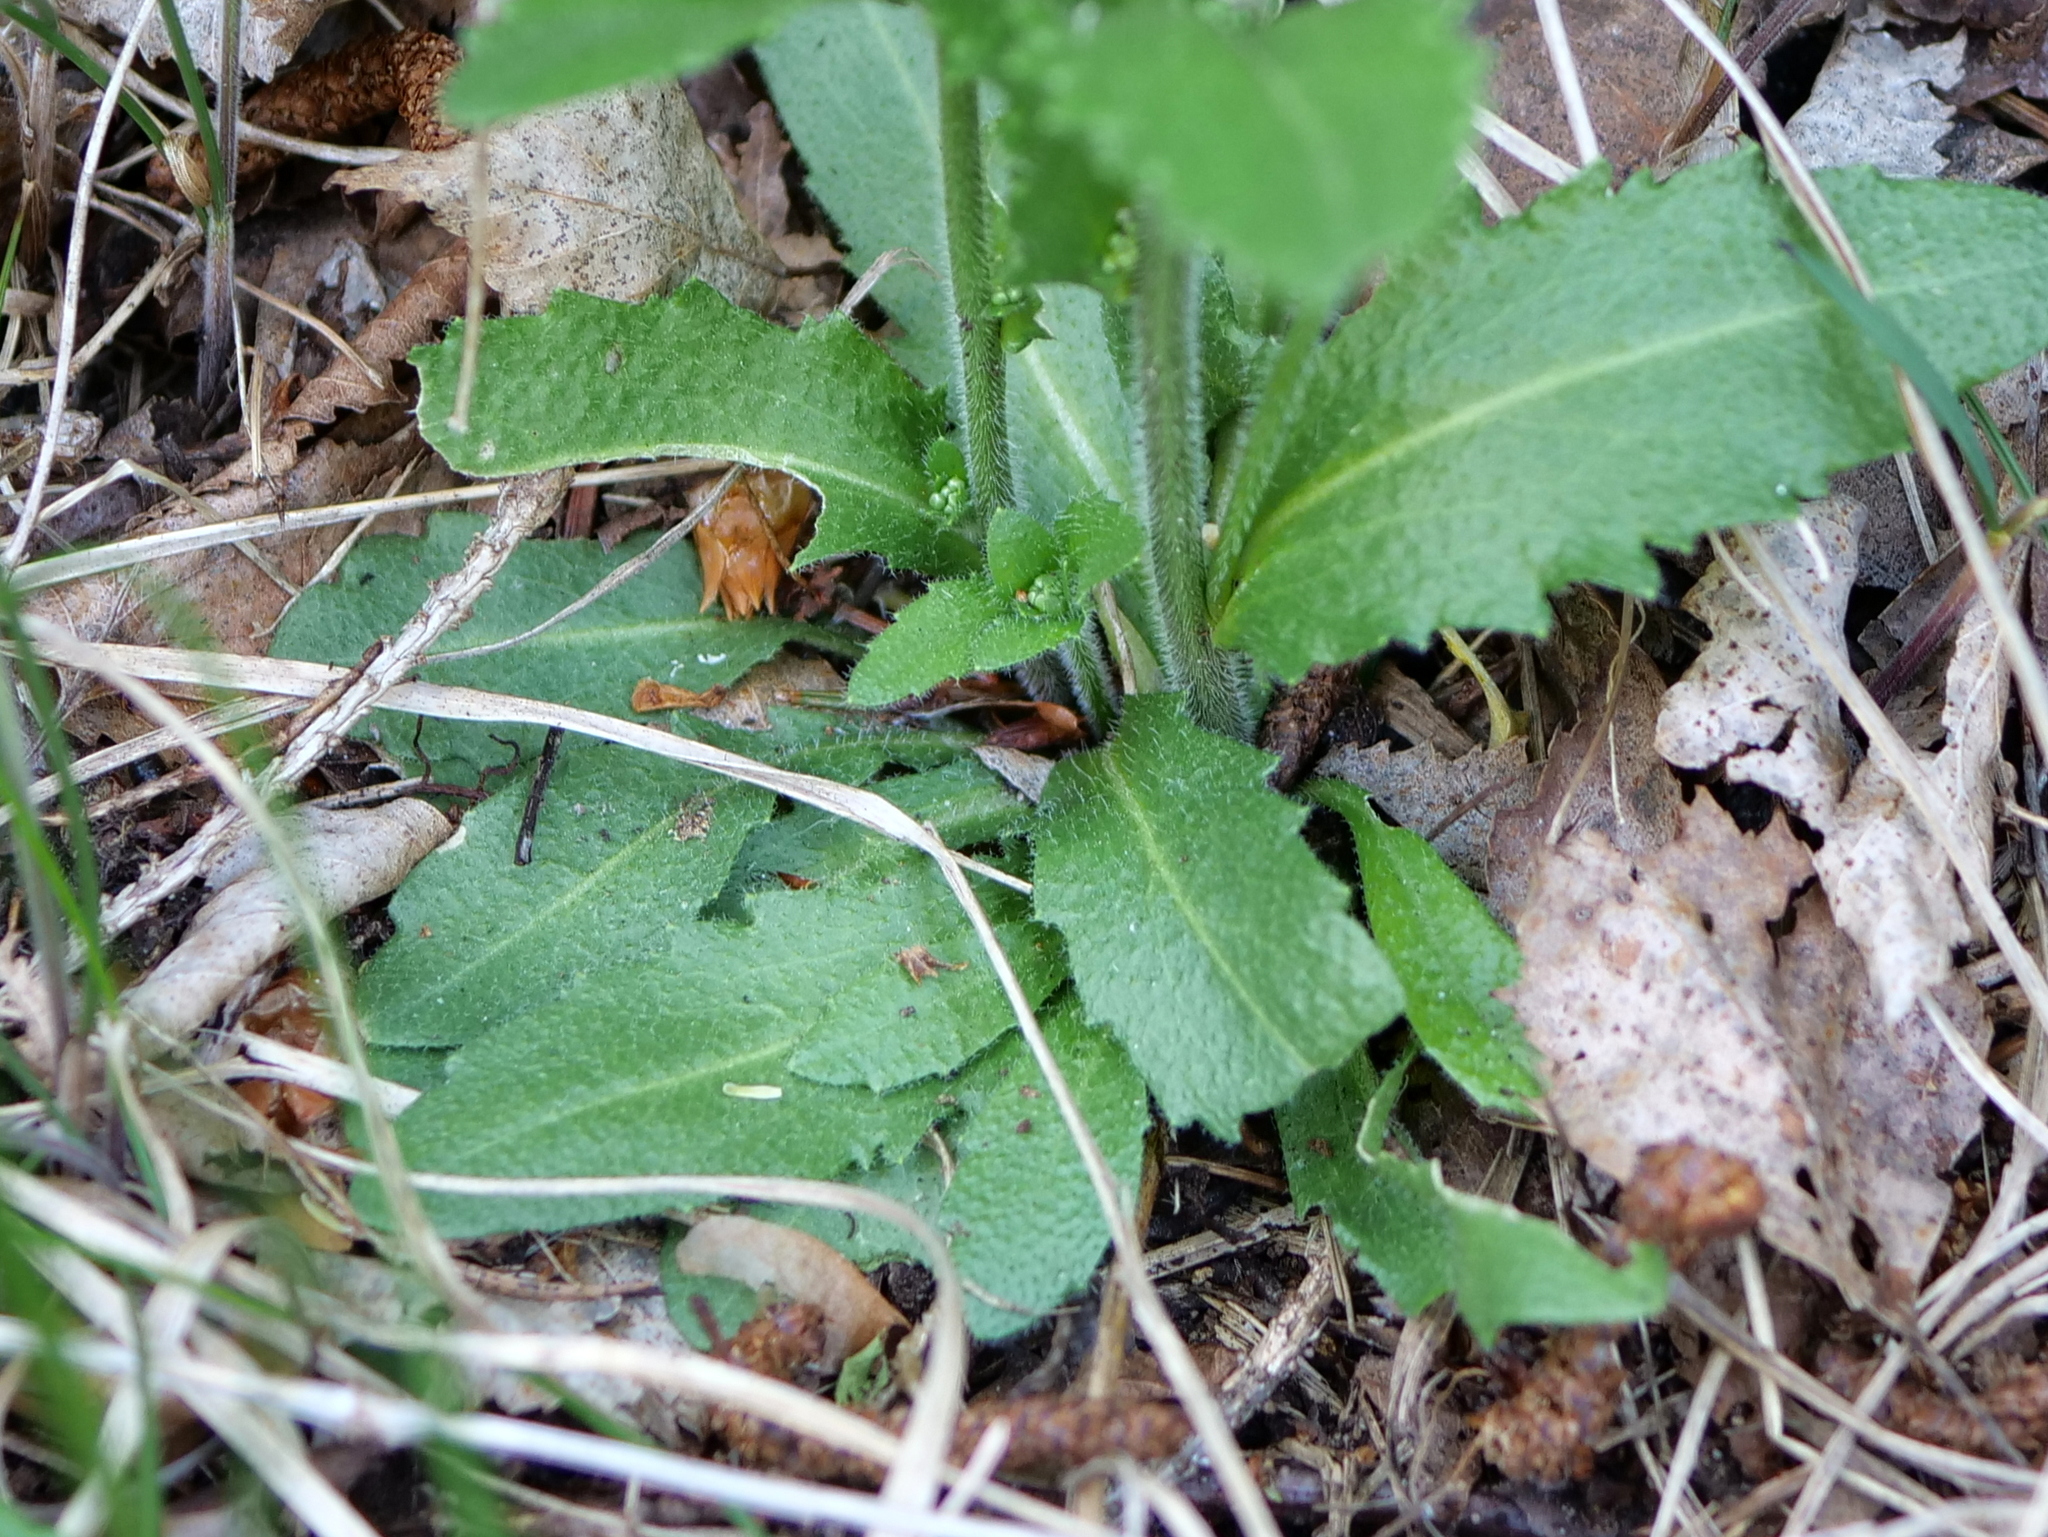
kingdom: Plantae
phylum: Tracheophyta
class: Magnoliopsida
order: Brassicales
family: Brassicaceae
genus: Arabis
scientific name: Arabis hirsuta
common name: Hairy rock-cress
